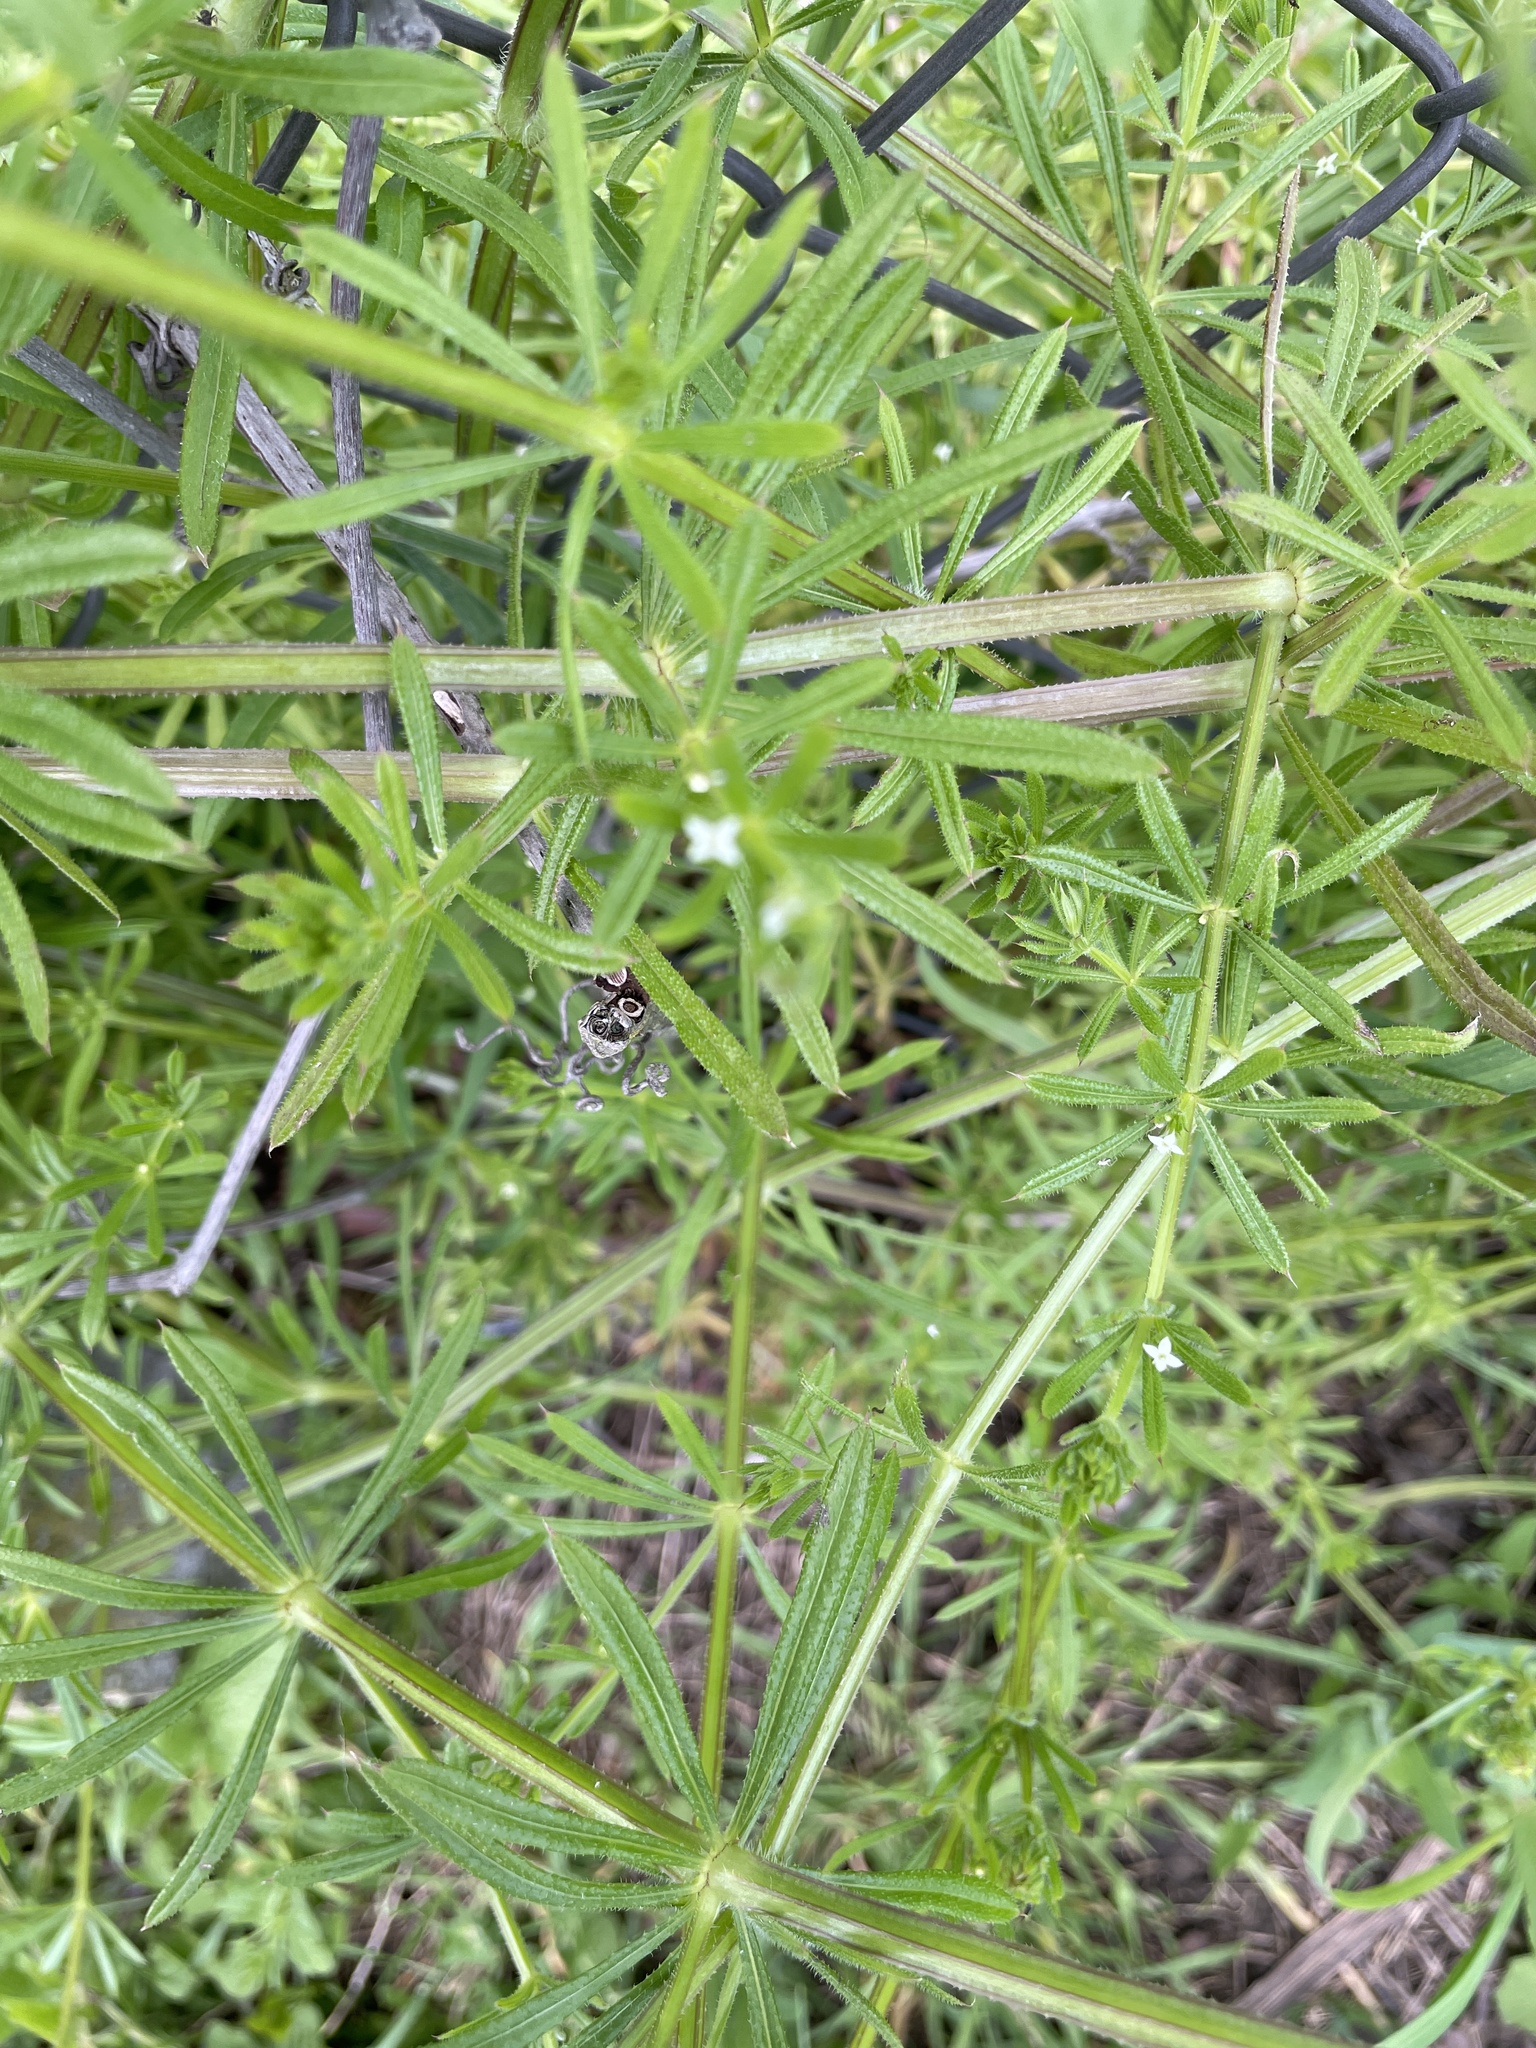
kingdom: Plantae
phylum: Tracheophyta
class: Magnoliopsida
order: Gentianales
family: Rubiaceae
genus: Galium
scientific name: Galium aparine
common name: Cleavers
